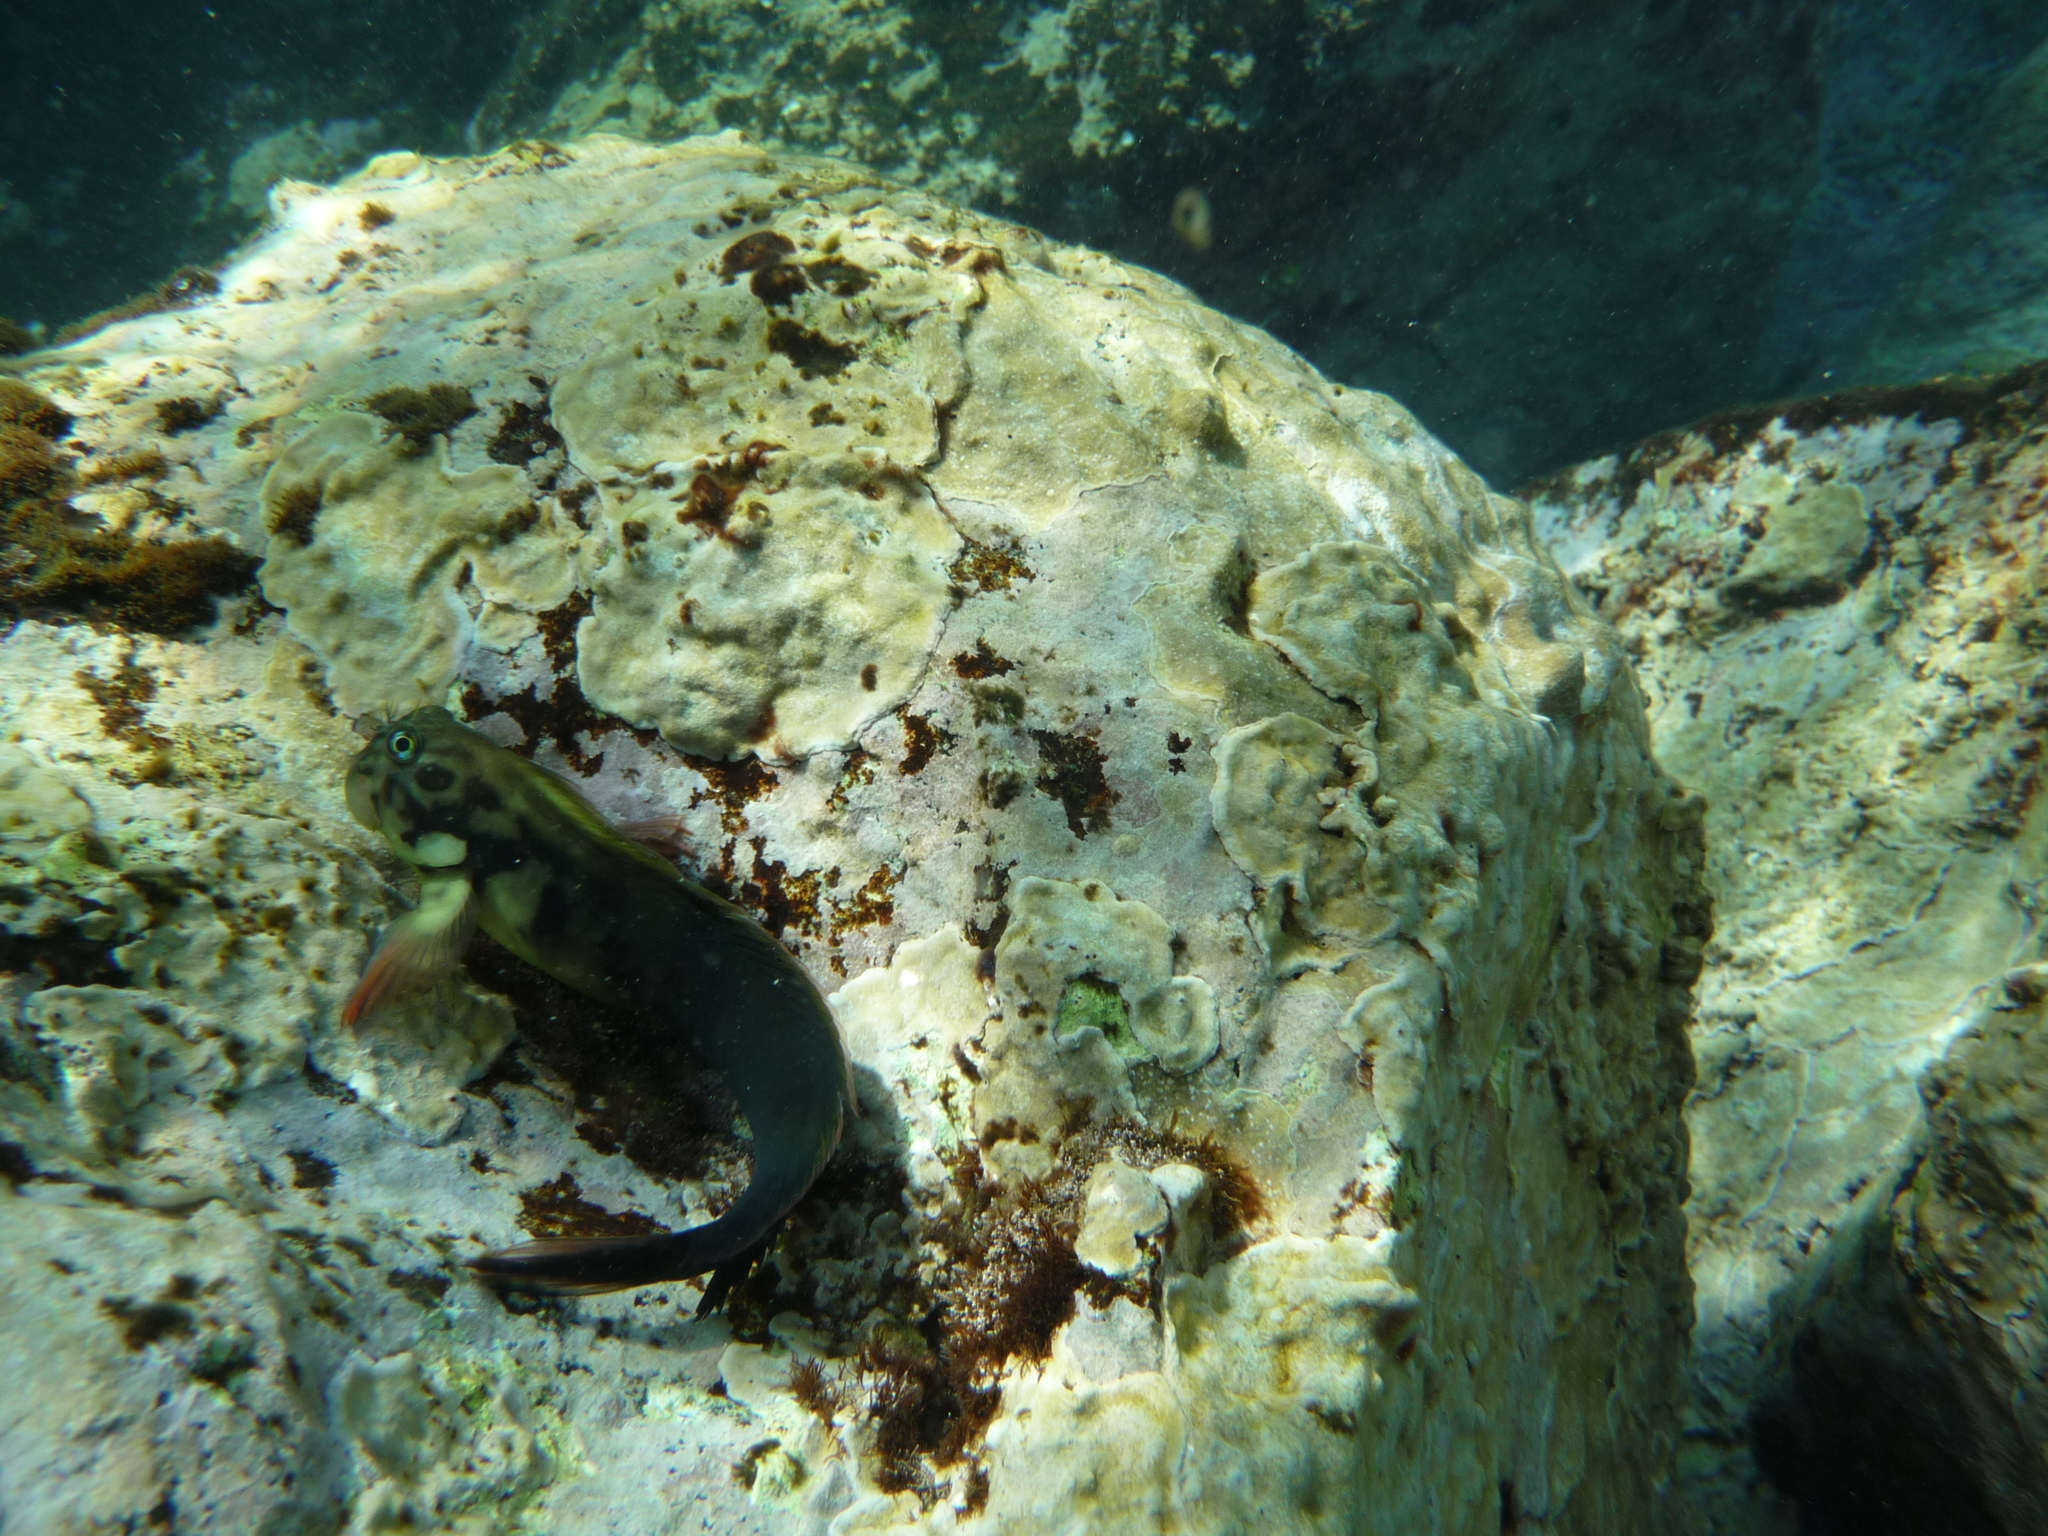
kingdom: Animalia
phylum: Chordata
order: Perciformes
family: Blenniidae
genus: Ophioblennius
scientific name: Ophioblennius atlanticus
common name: Redlip blenny
